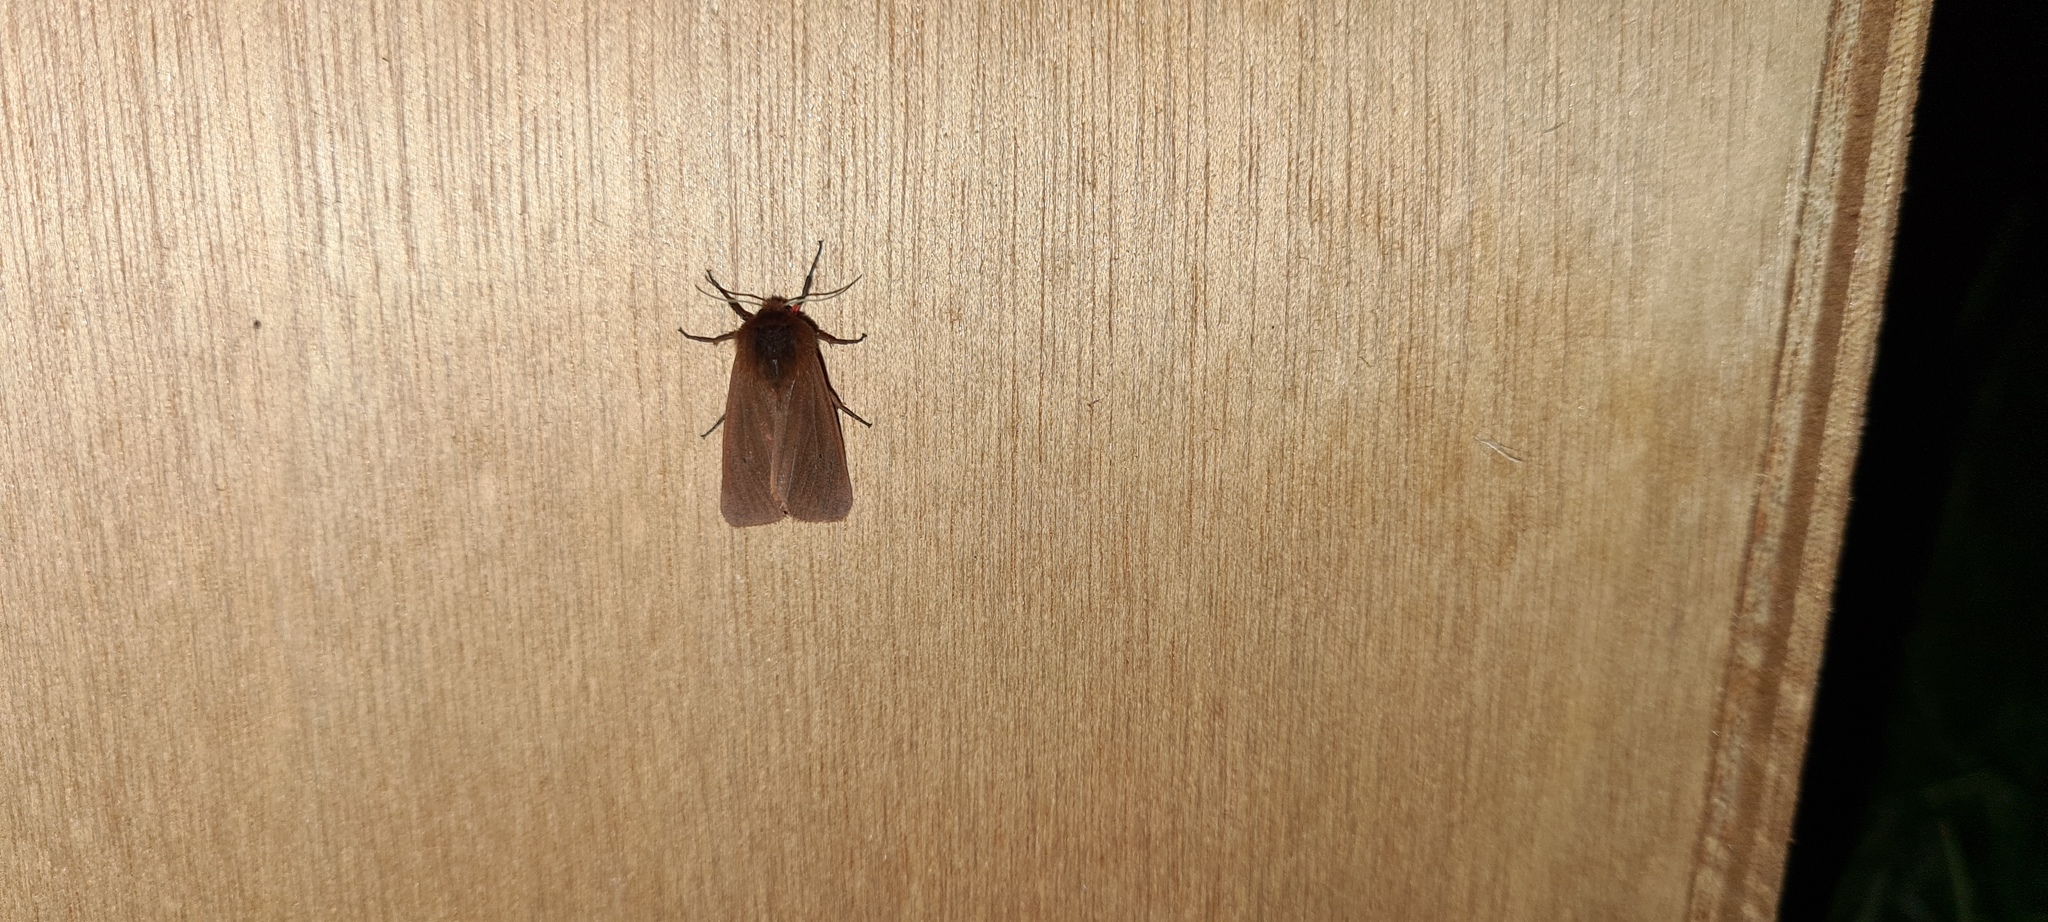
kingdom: Animalia
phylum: Arthropoda
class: Insecta
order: Lepidoptera
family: Erebidae
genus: Phragmatobia
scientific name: Phragmatobia fuliginosa
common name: Ruby tiger
